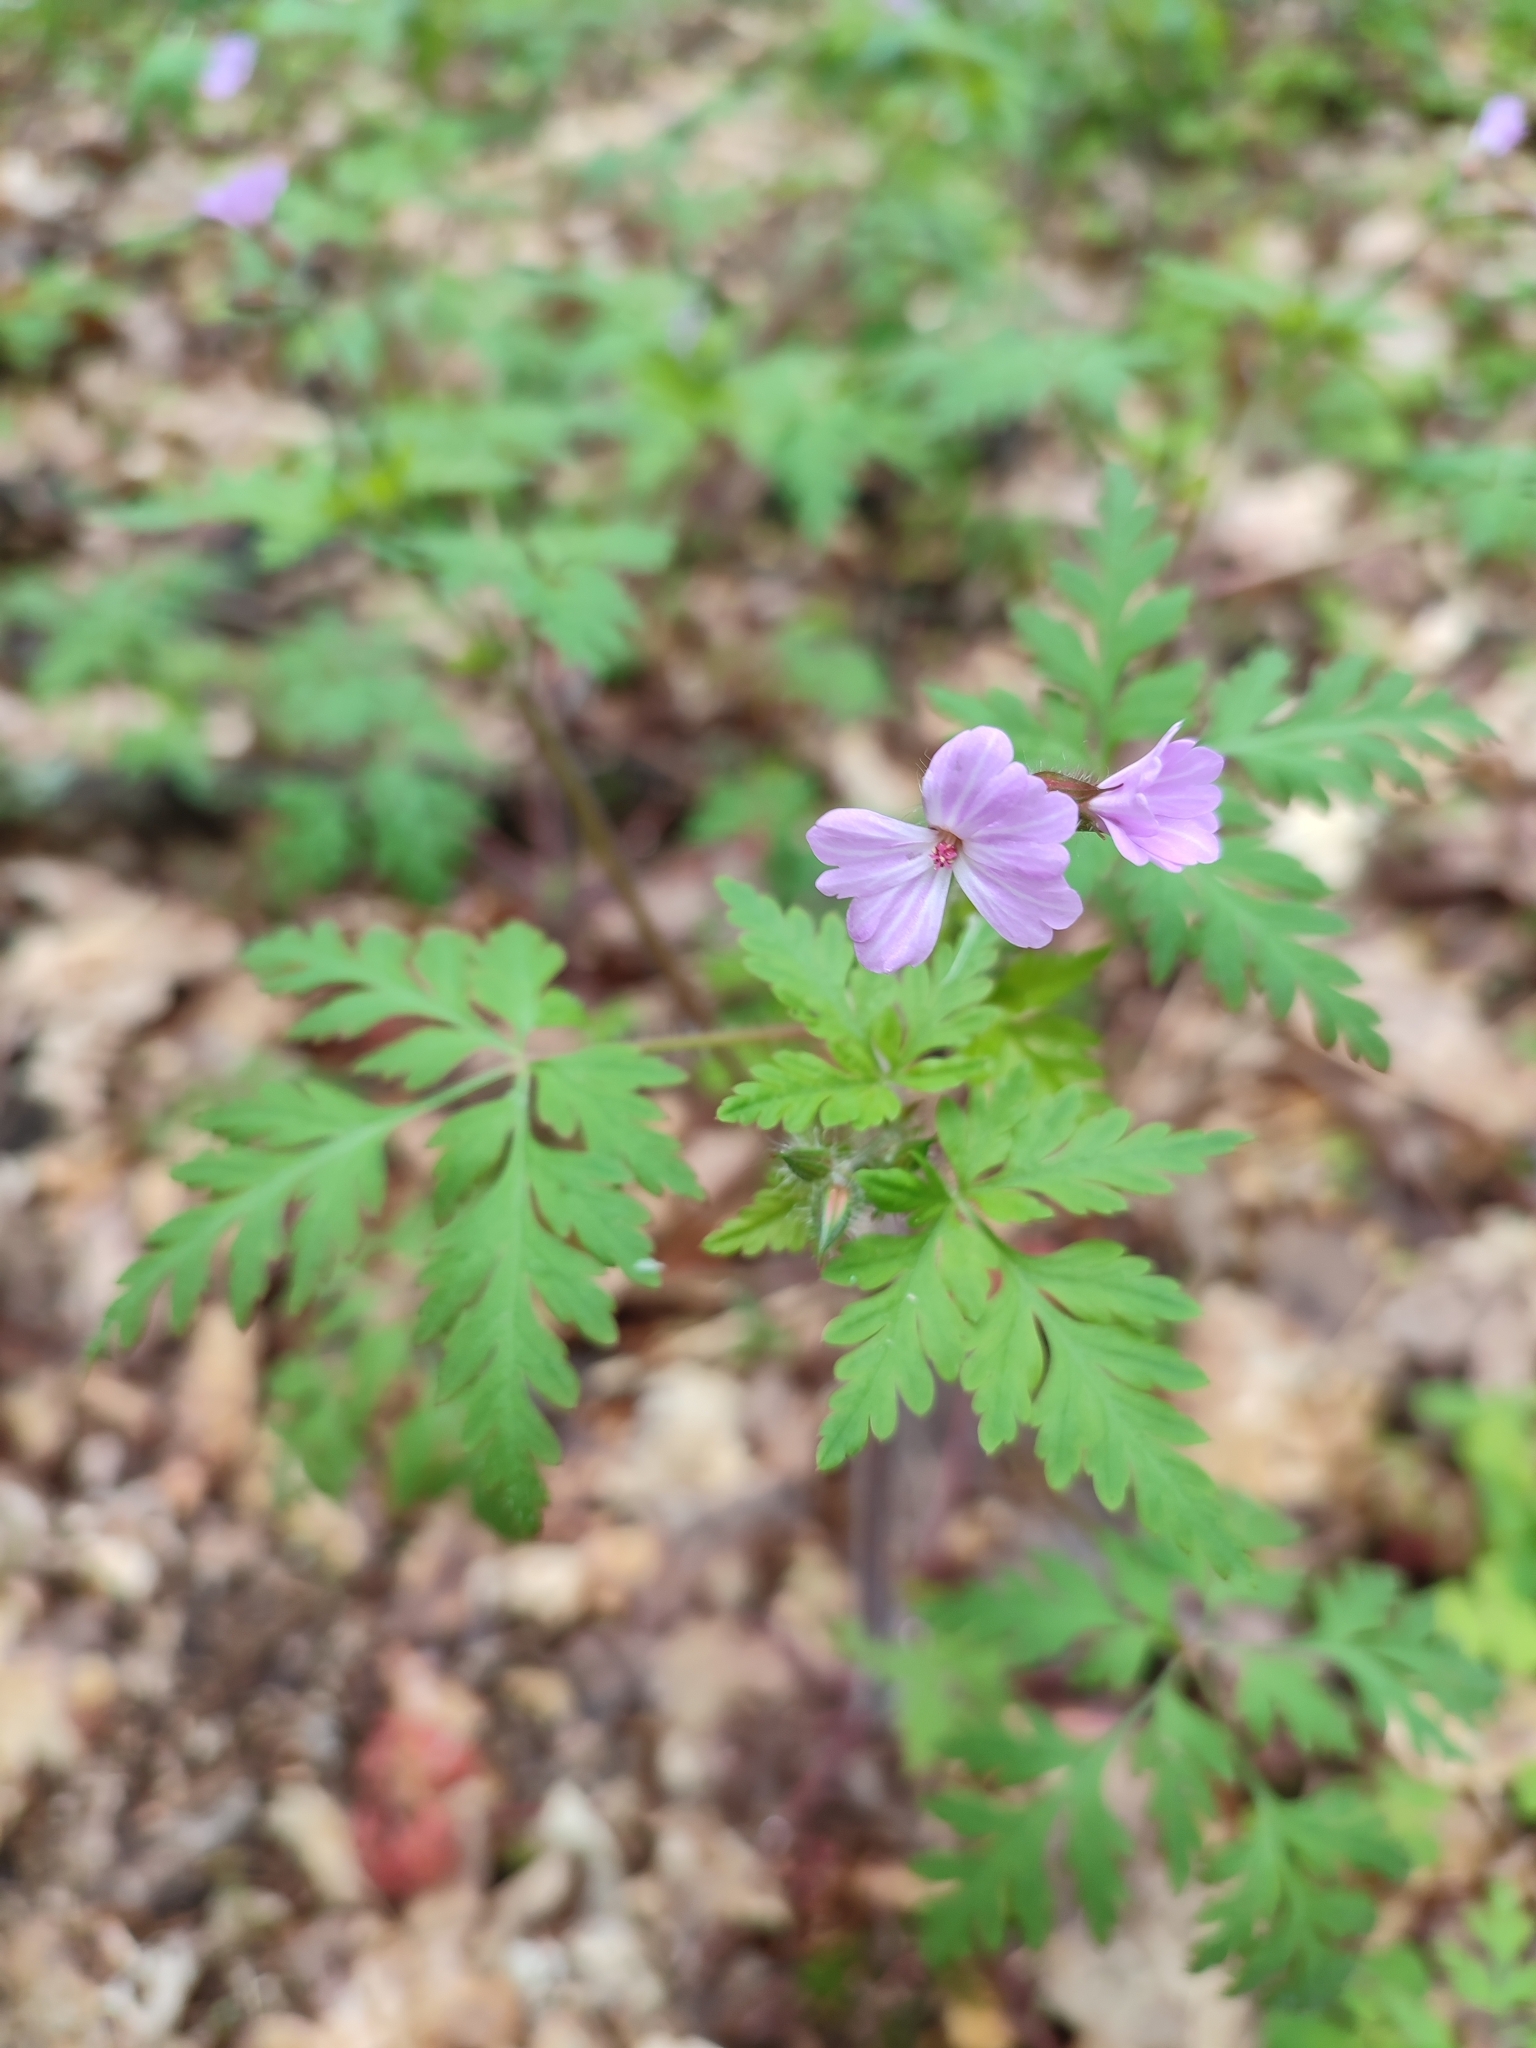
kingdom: Plantae
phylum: Tracheophyta
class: Magnoliopsida
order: Geraniales
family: Geraniaceae
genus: Geranium
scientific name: Geranium robertianum
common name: Herb-robert
